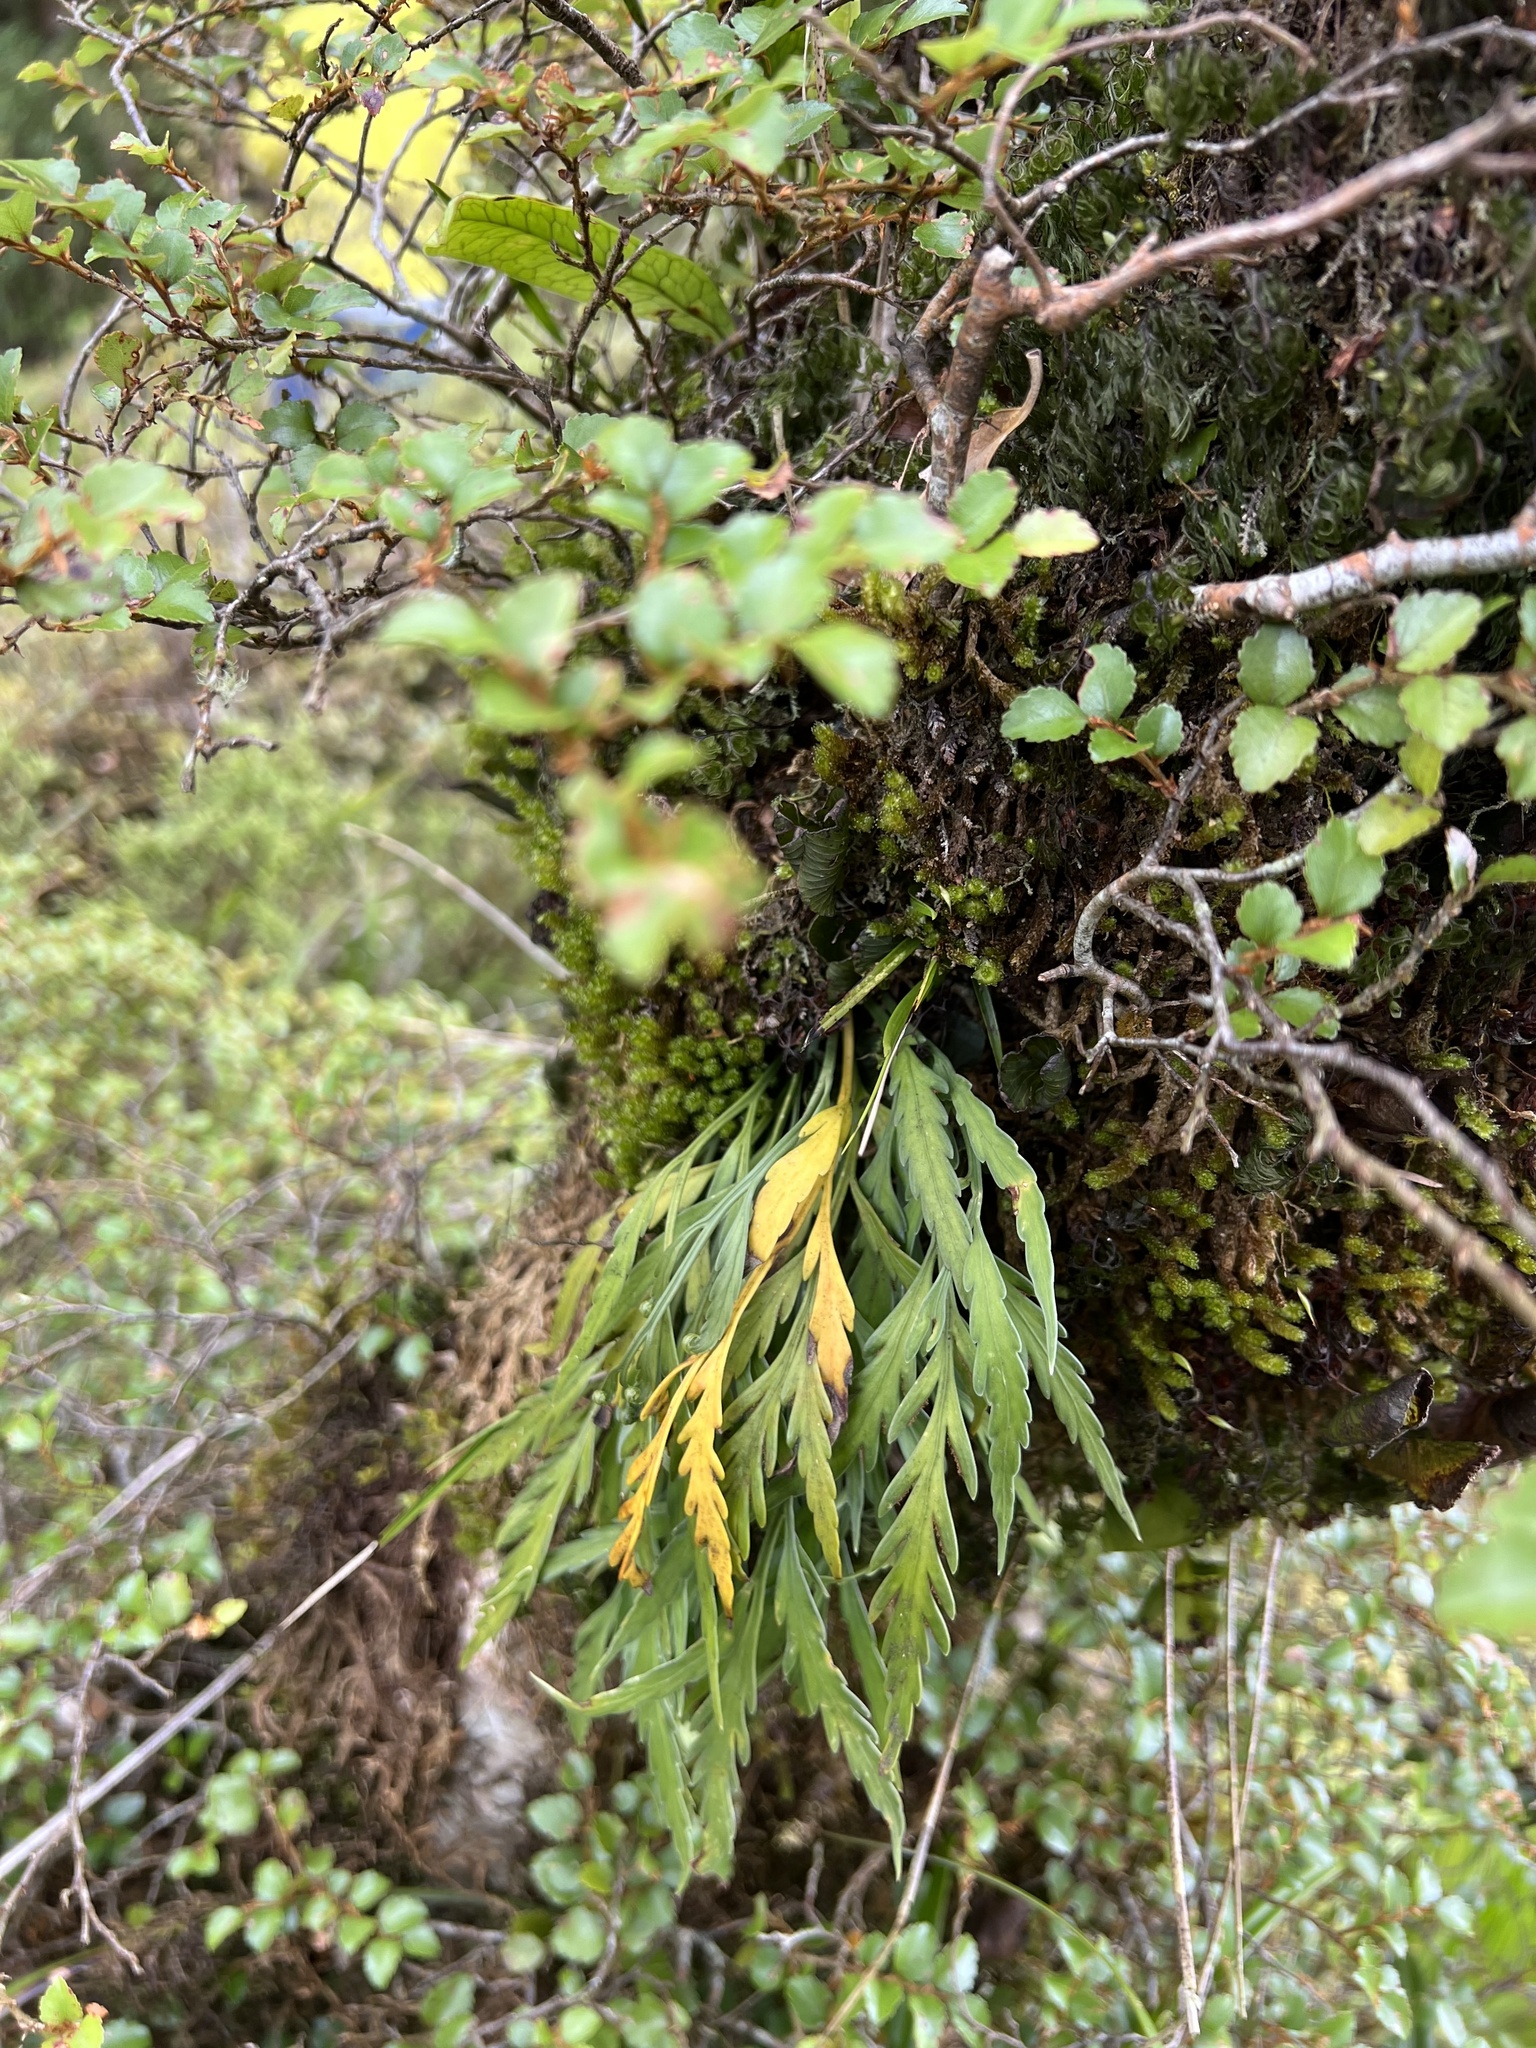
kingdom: Plantae
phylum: Tracheophyta
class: Polypodiopsida
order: Polypodiales
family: Aspleniaceae
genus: Asplenium
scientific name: Asplenium flaccidum
